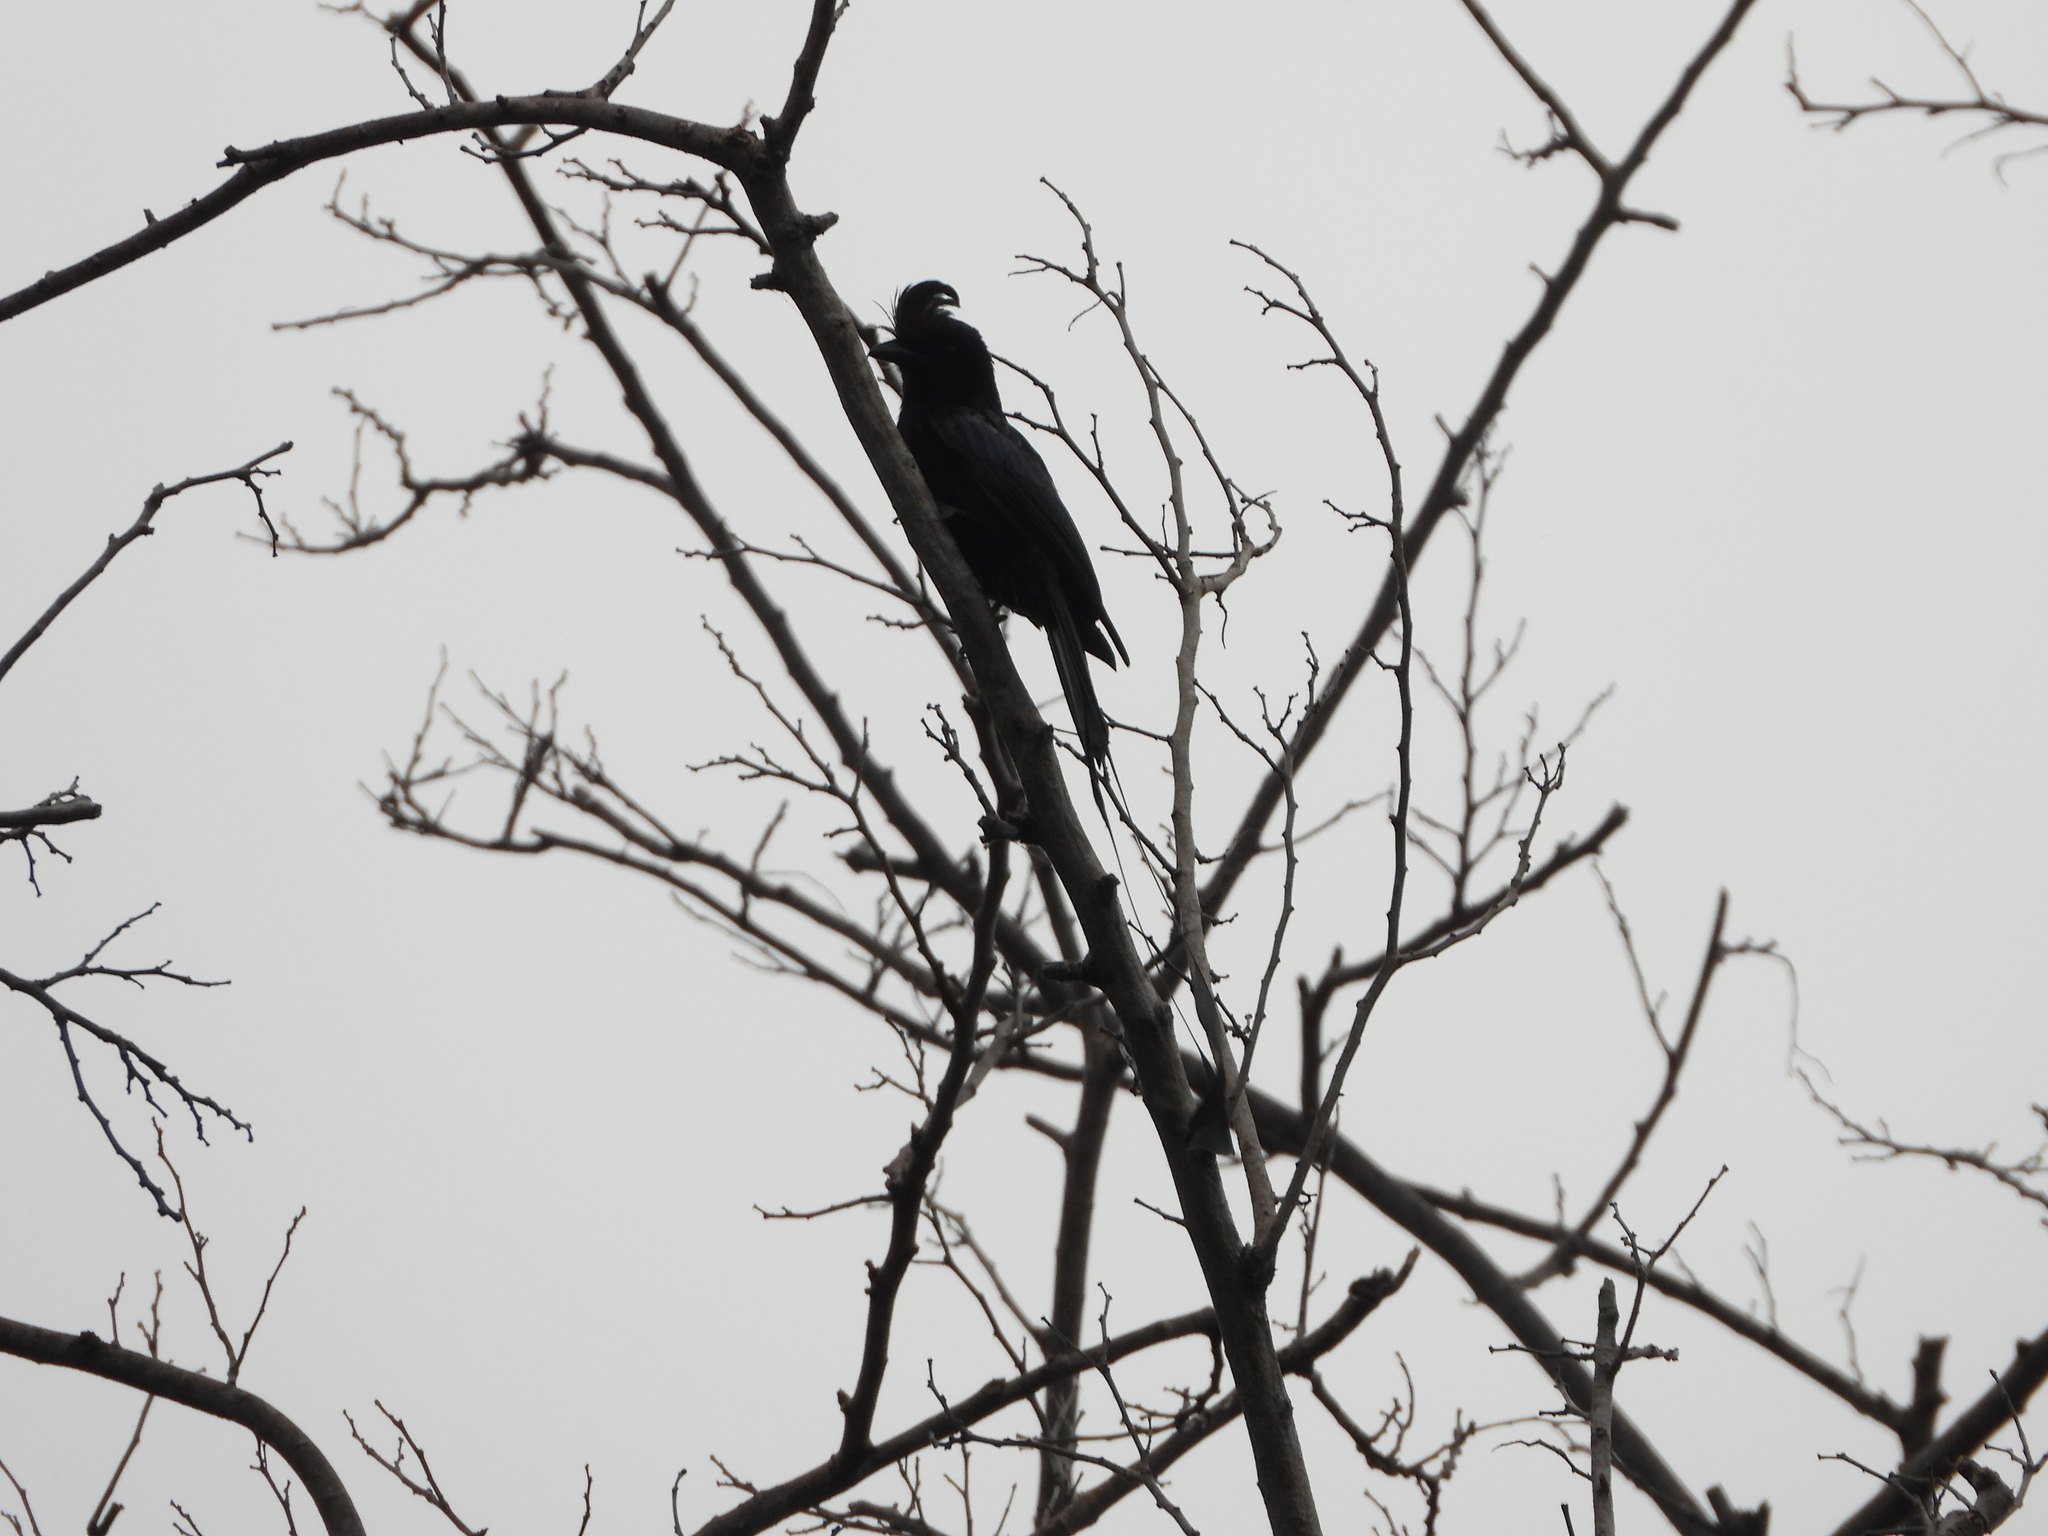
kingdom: Animalia
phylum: Chordata
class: Aves
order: Passeriformes
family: Dicruridae
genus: Dicrurus
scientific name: Dicrurus paradiseus
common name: Greater racket-tailed drongo
